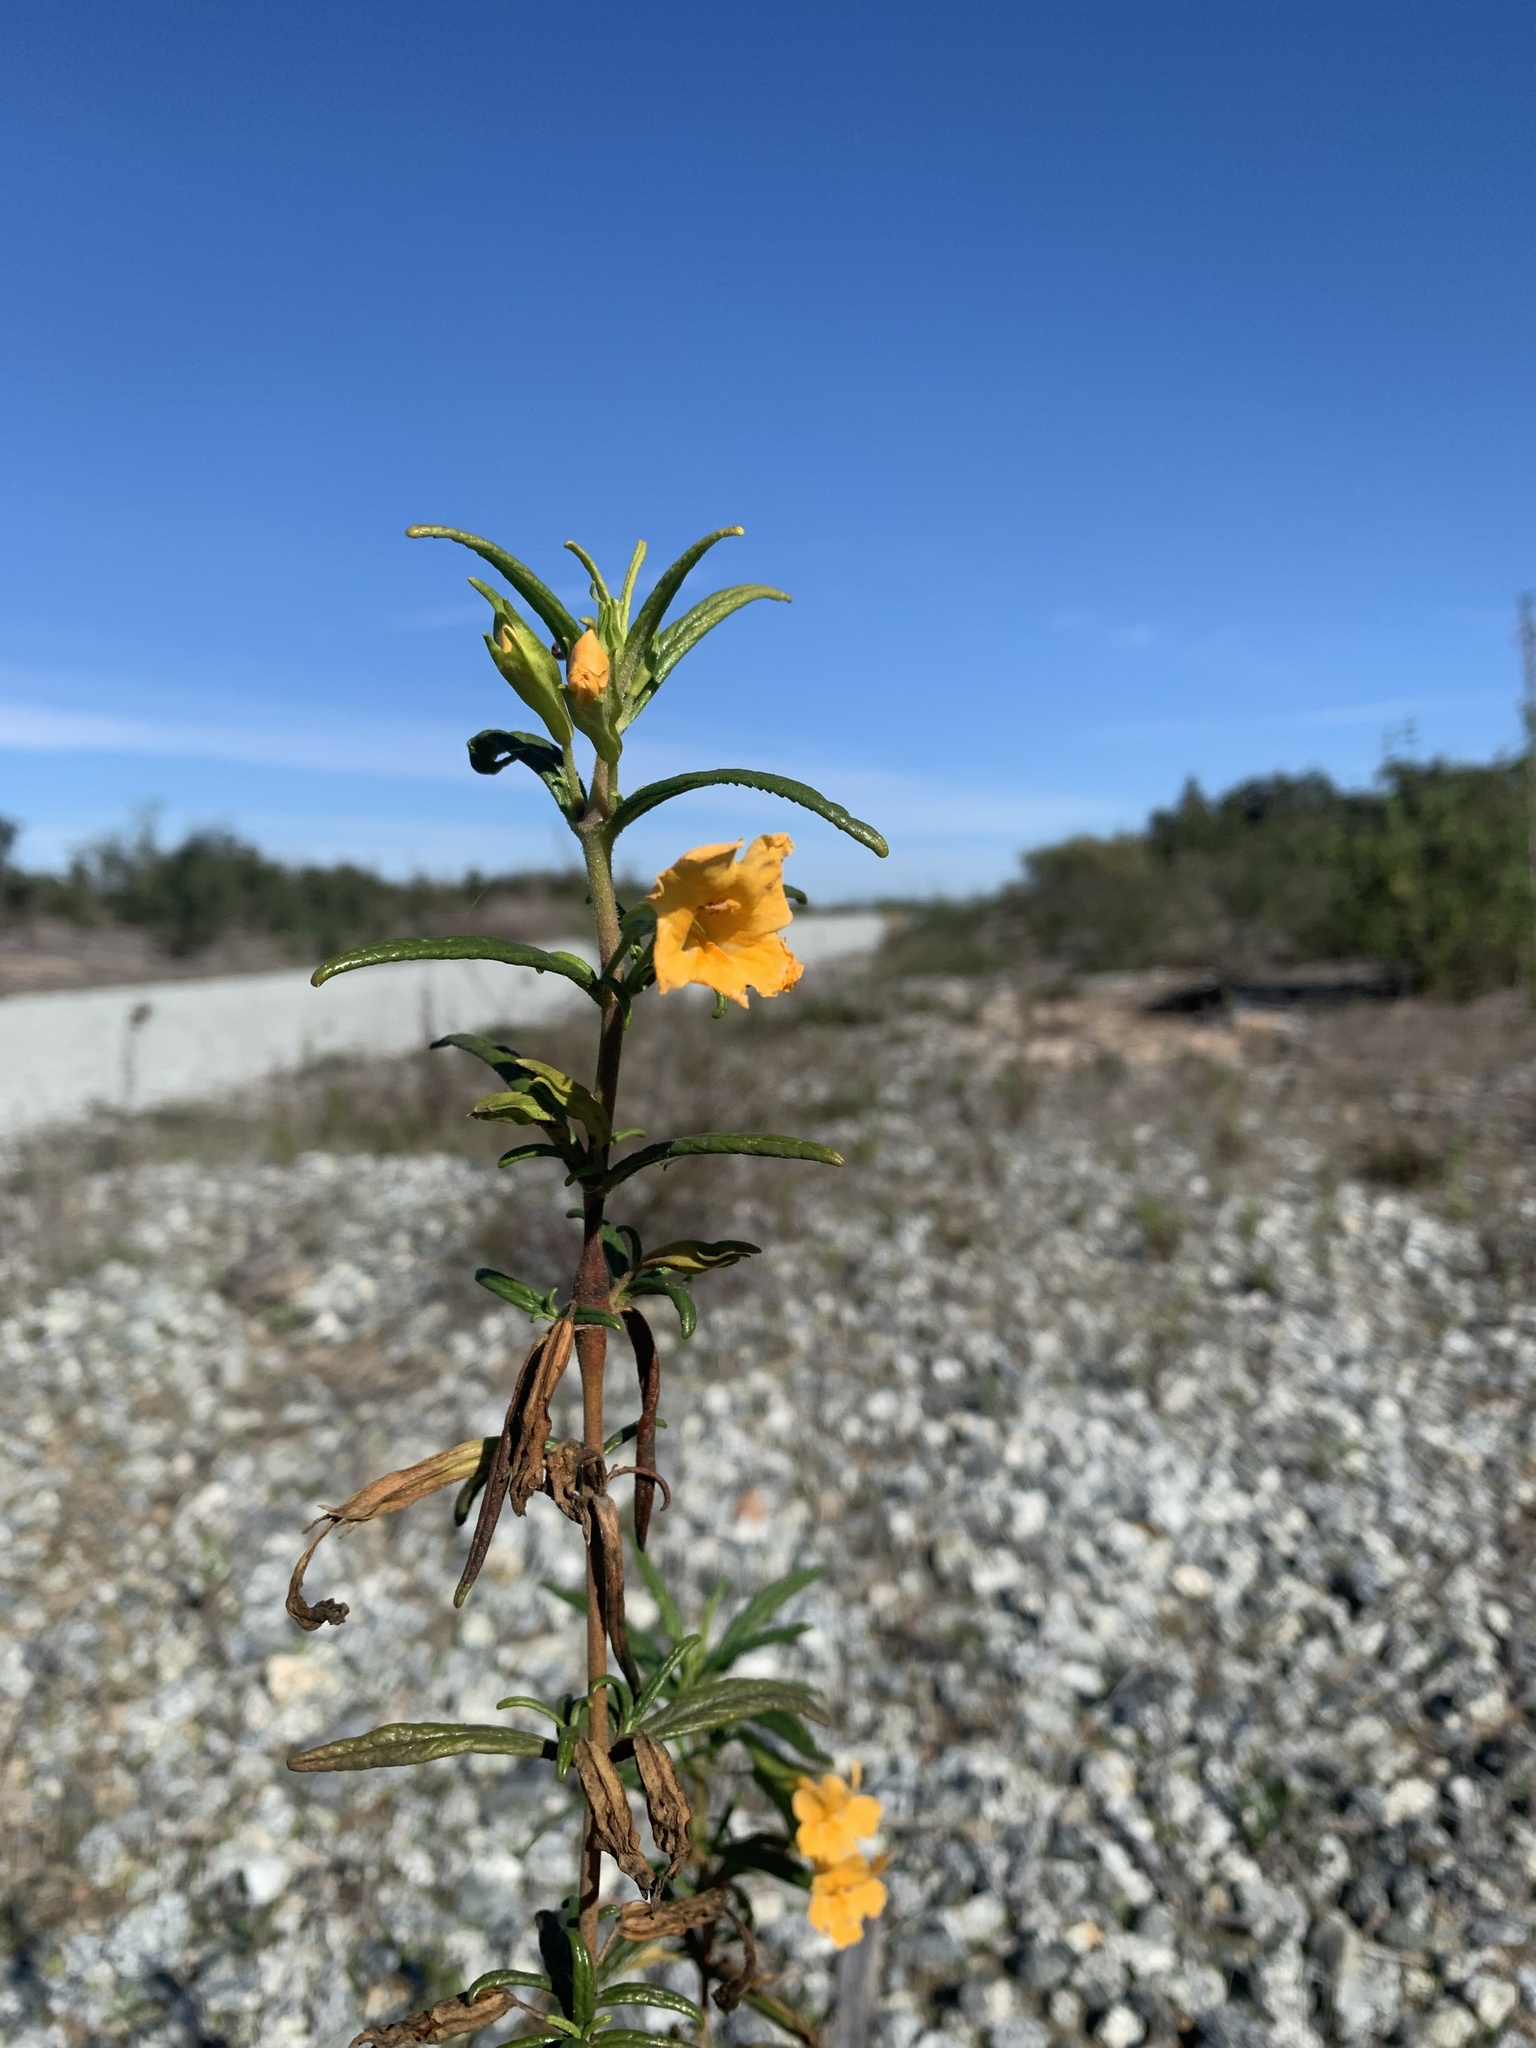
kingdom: Plantae
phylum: Tracheophyta
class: Magnoliopsida
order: Lamiales
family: Phrymaceae
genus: Diplacus
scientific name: Diplacus aurantiacus
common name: Bush monkey-flower
